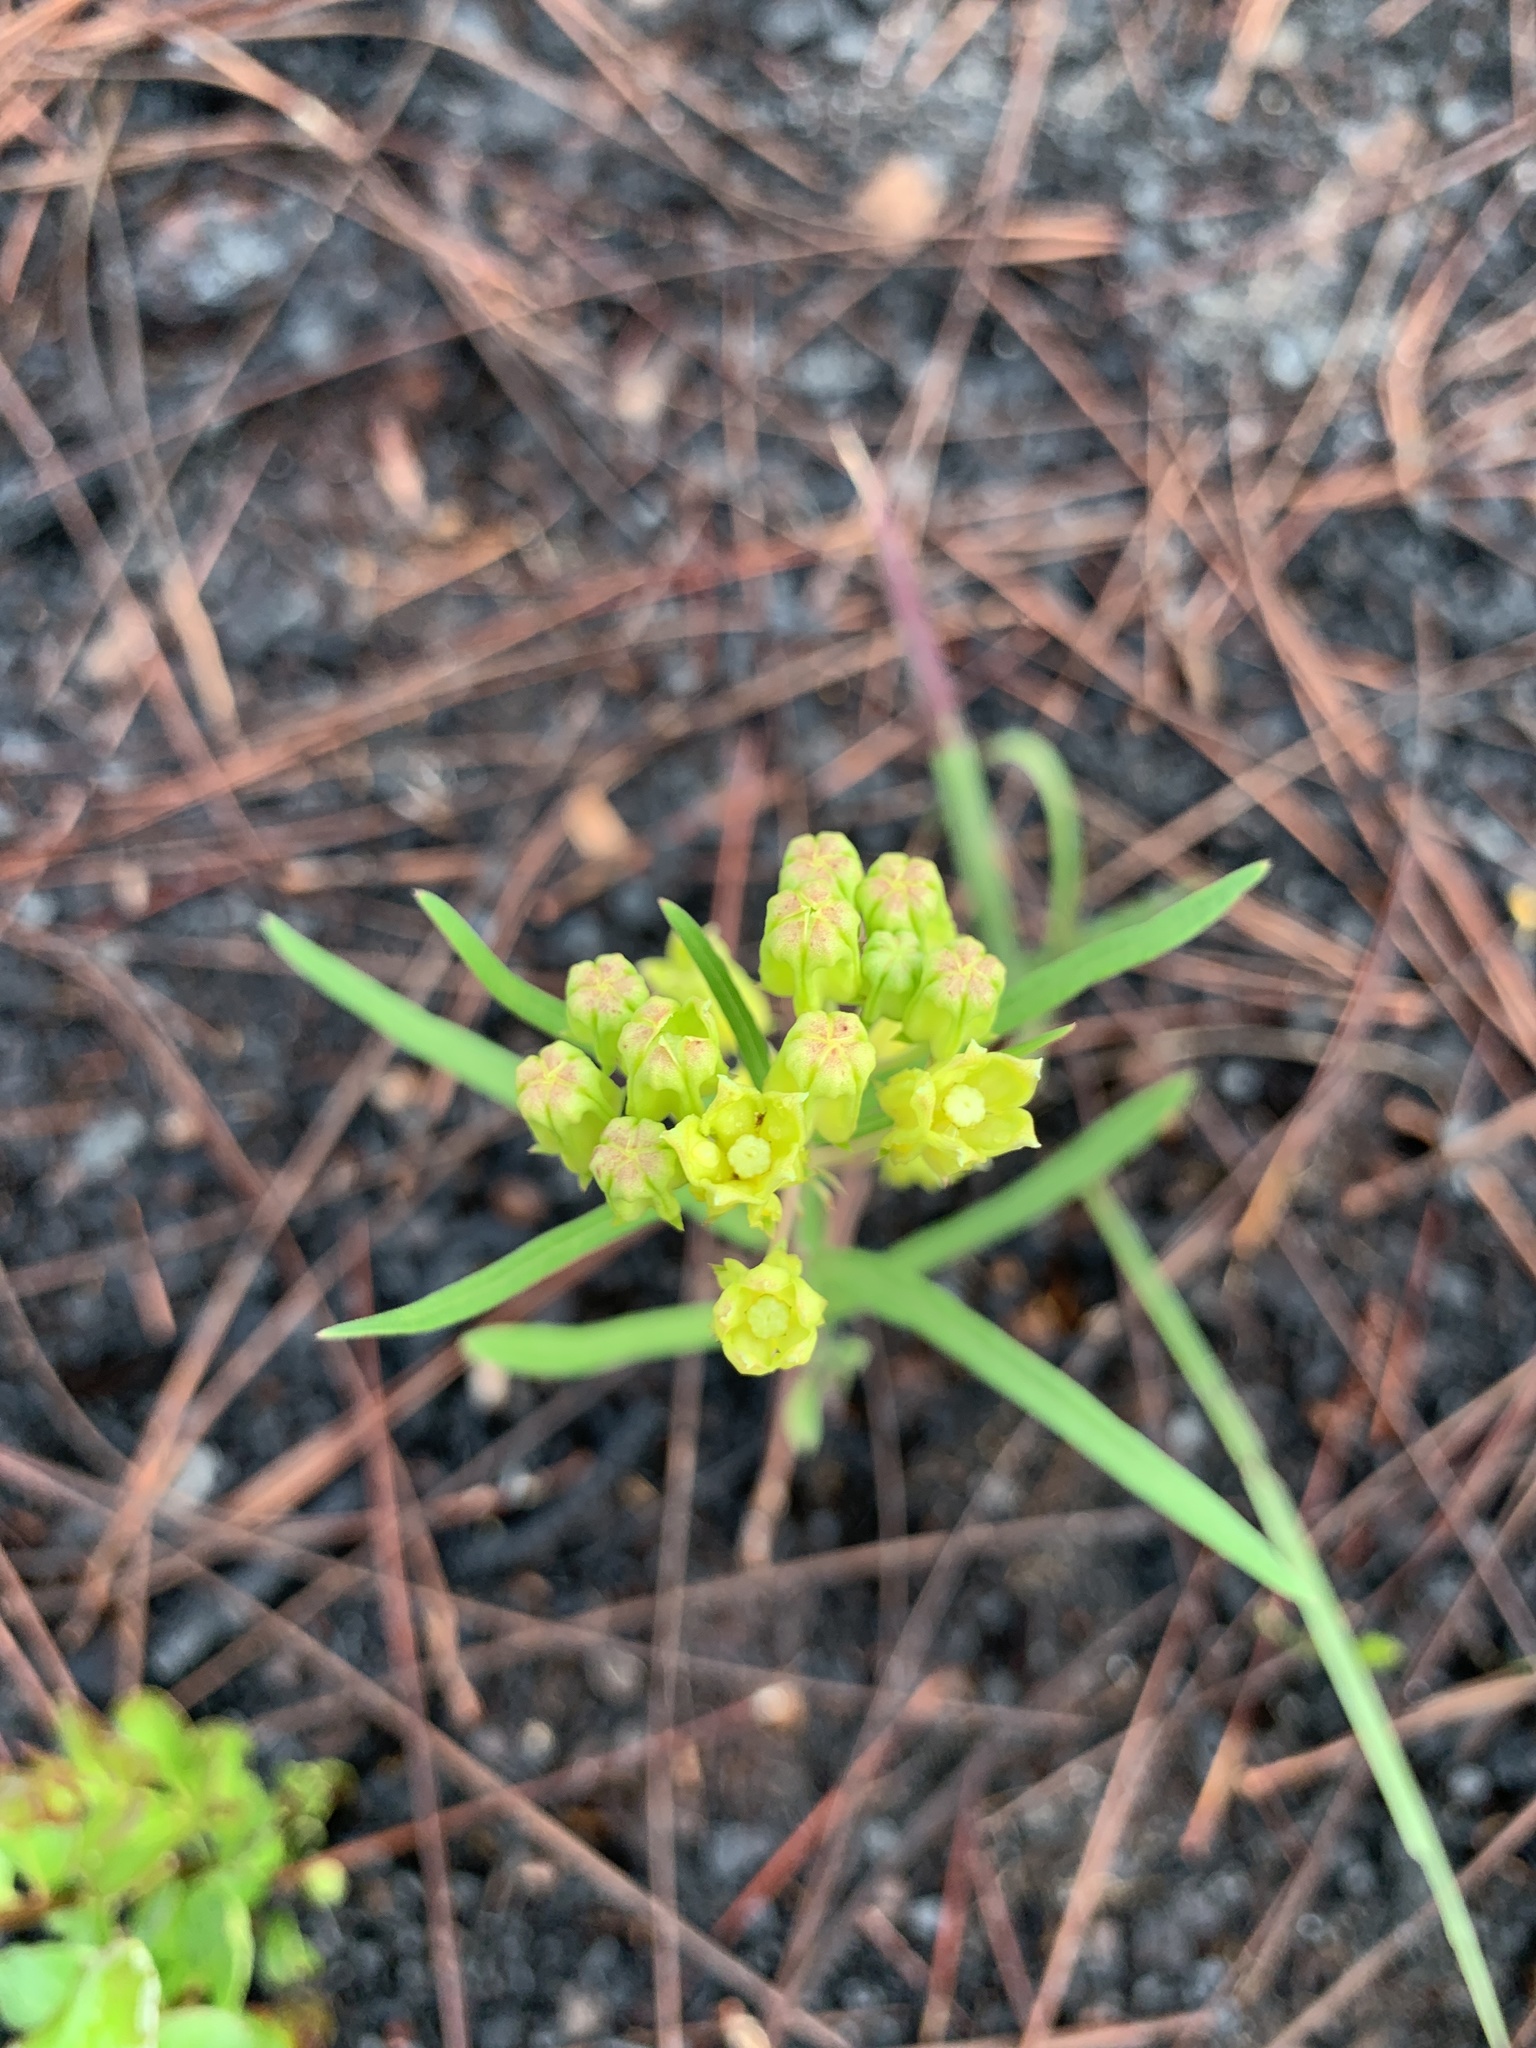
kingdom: Plantae
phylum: Tracheophyta
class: Magnoliopsida
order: Gentianales
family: Apocynaceae
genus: Asclepias
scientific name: Asclepias pedicellata
